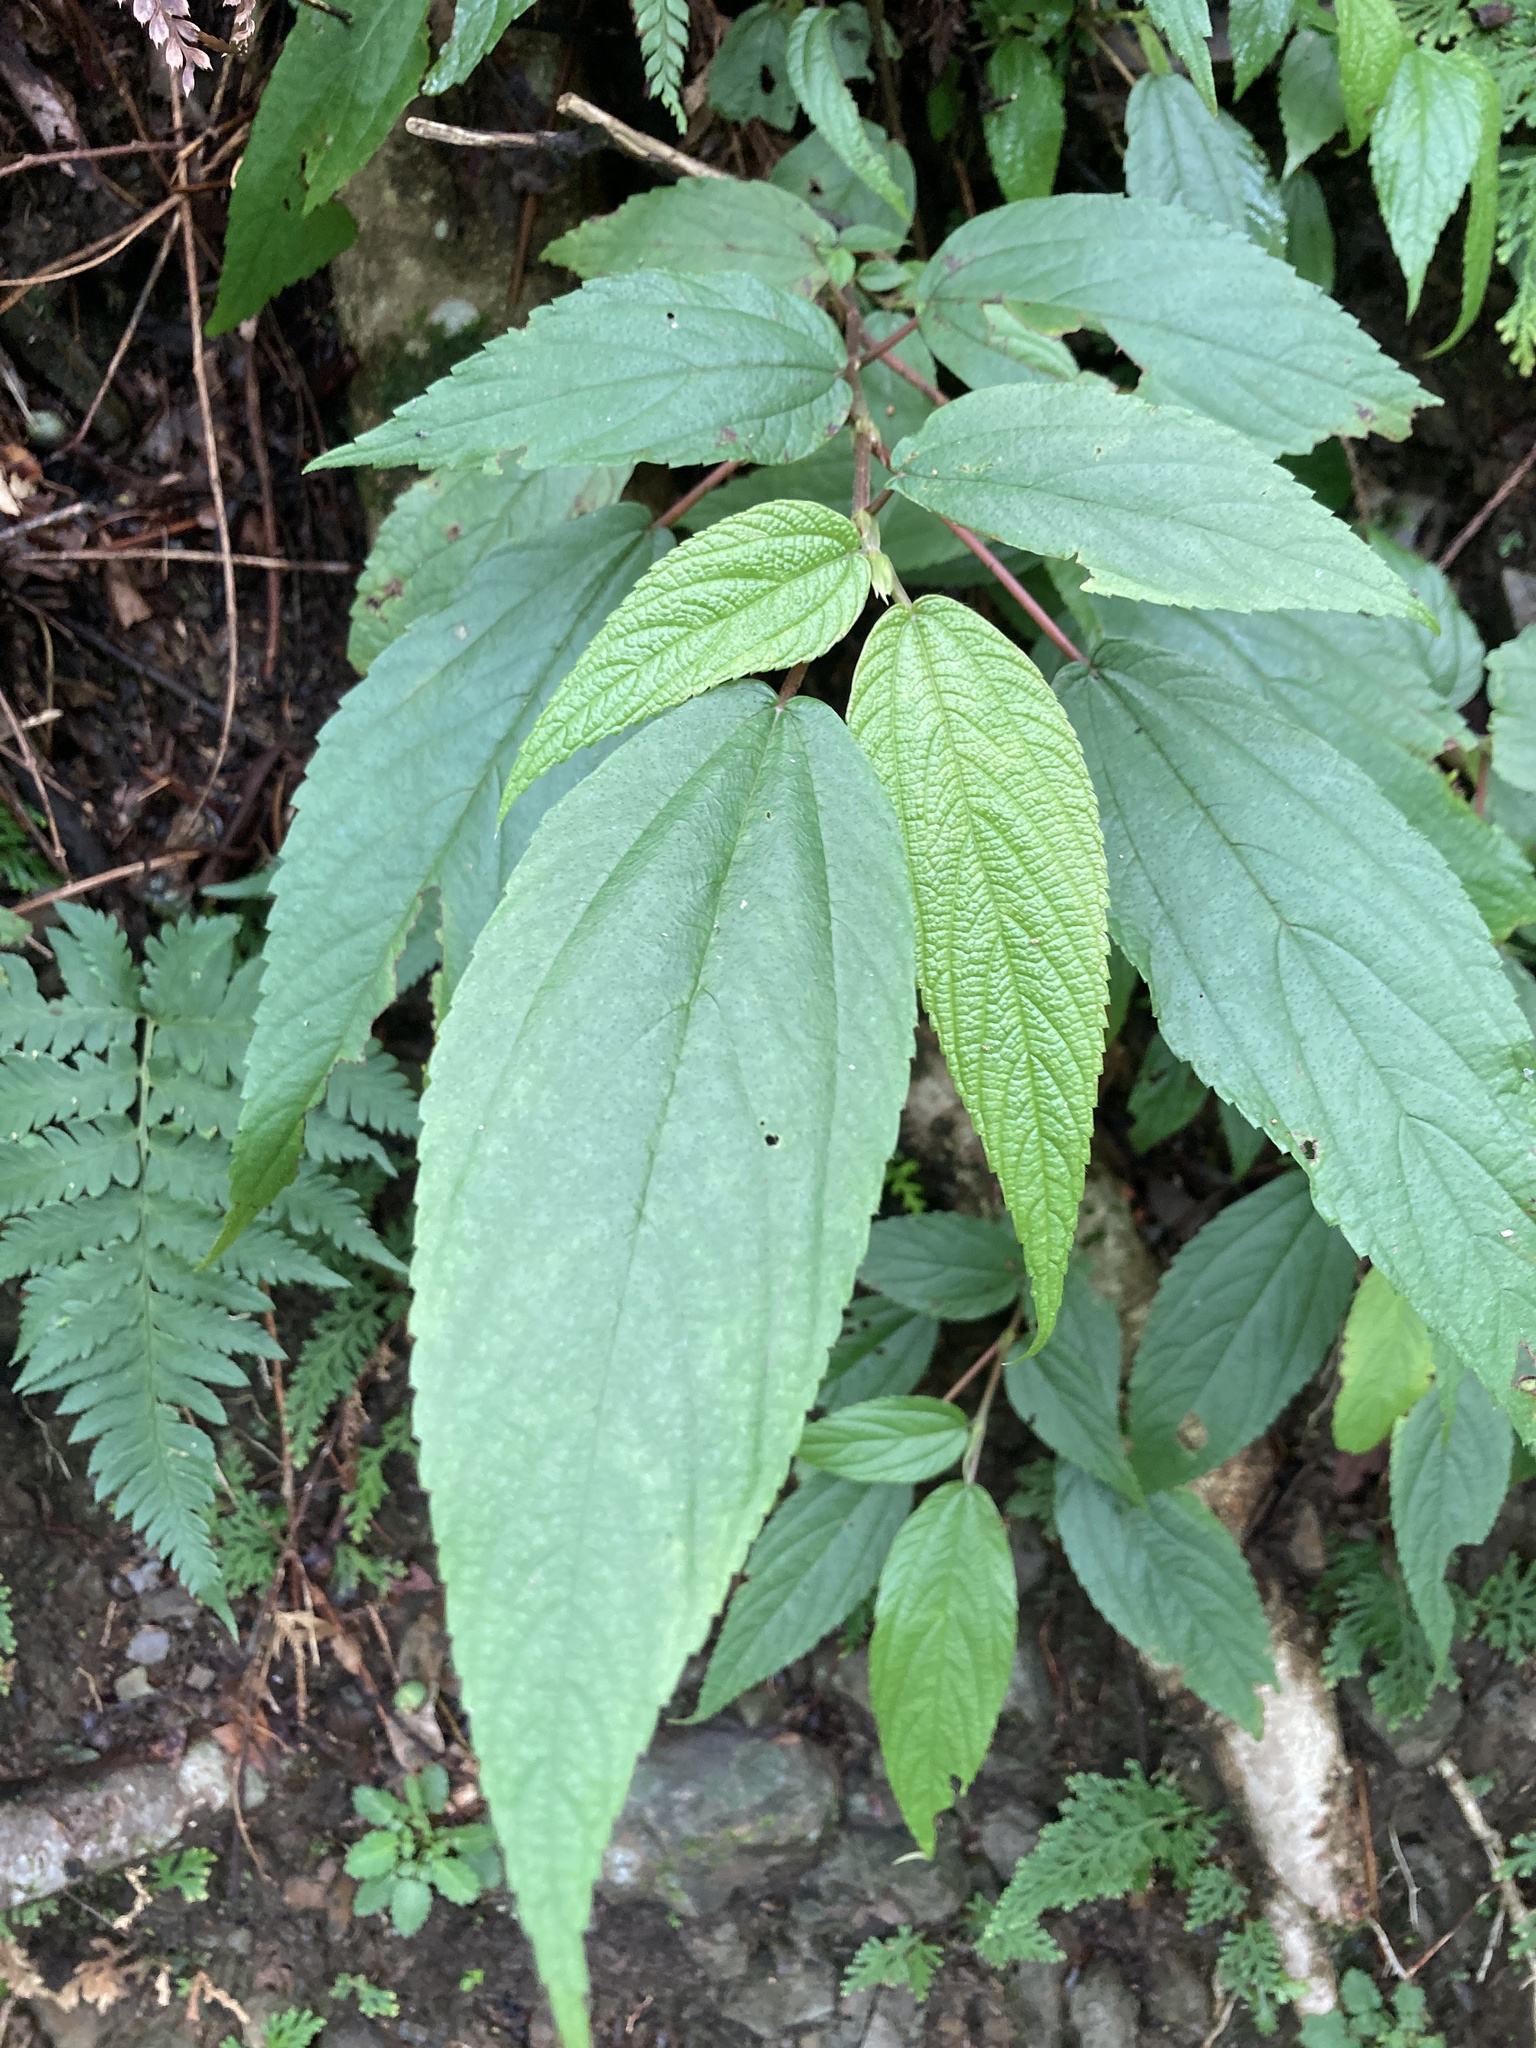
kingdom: Plantae
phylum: Tracheophyta
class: Magnoliopsida
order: Rosales
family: Urticaceae
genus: Boehmeria
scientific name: Boehmeria zollingeriana
